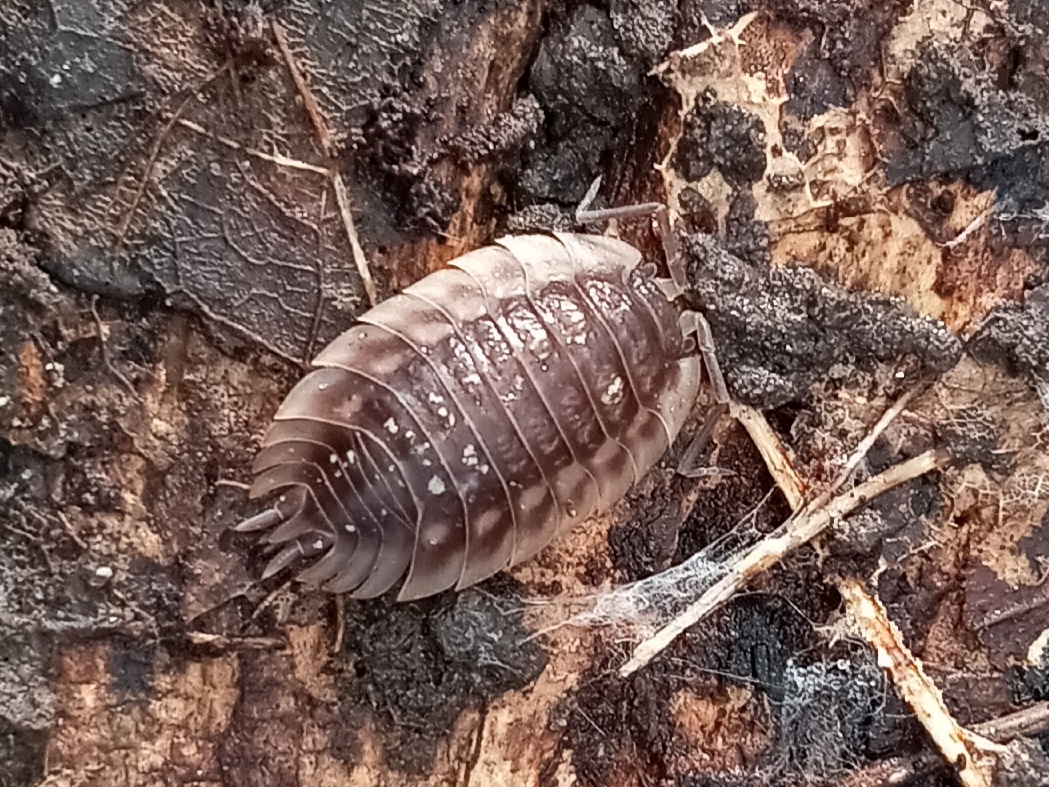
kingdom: Animalia
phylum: Arthropoda
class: Malacostraca
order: Isopoda
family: Oniscidae
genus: Oniscus
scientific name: Oniscus asellus
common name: Common shiny woodlouse
